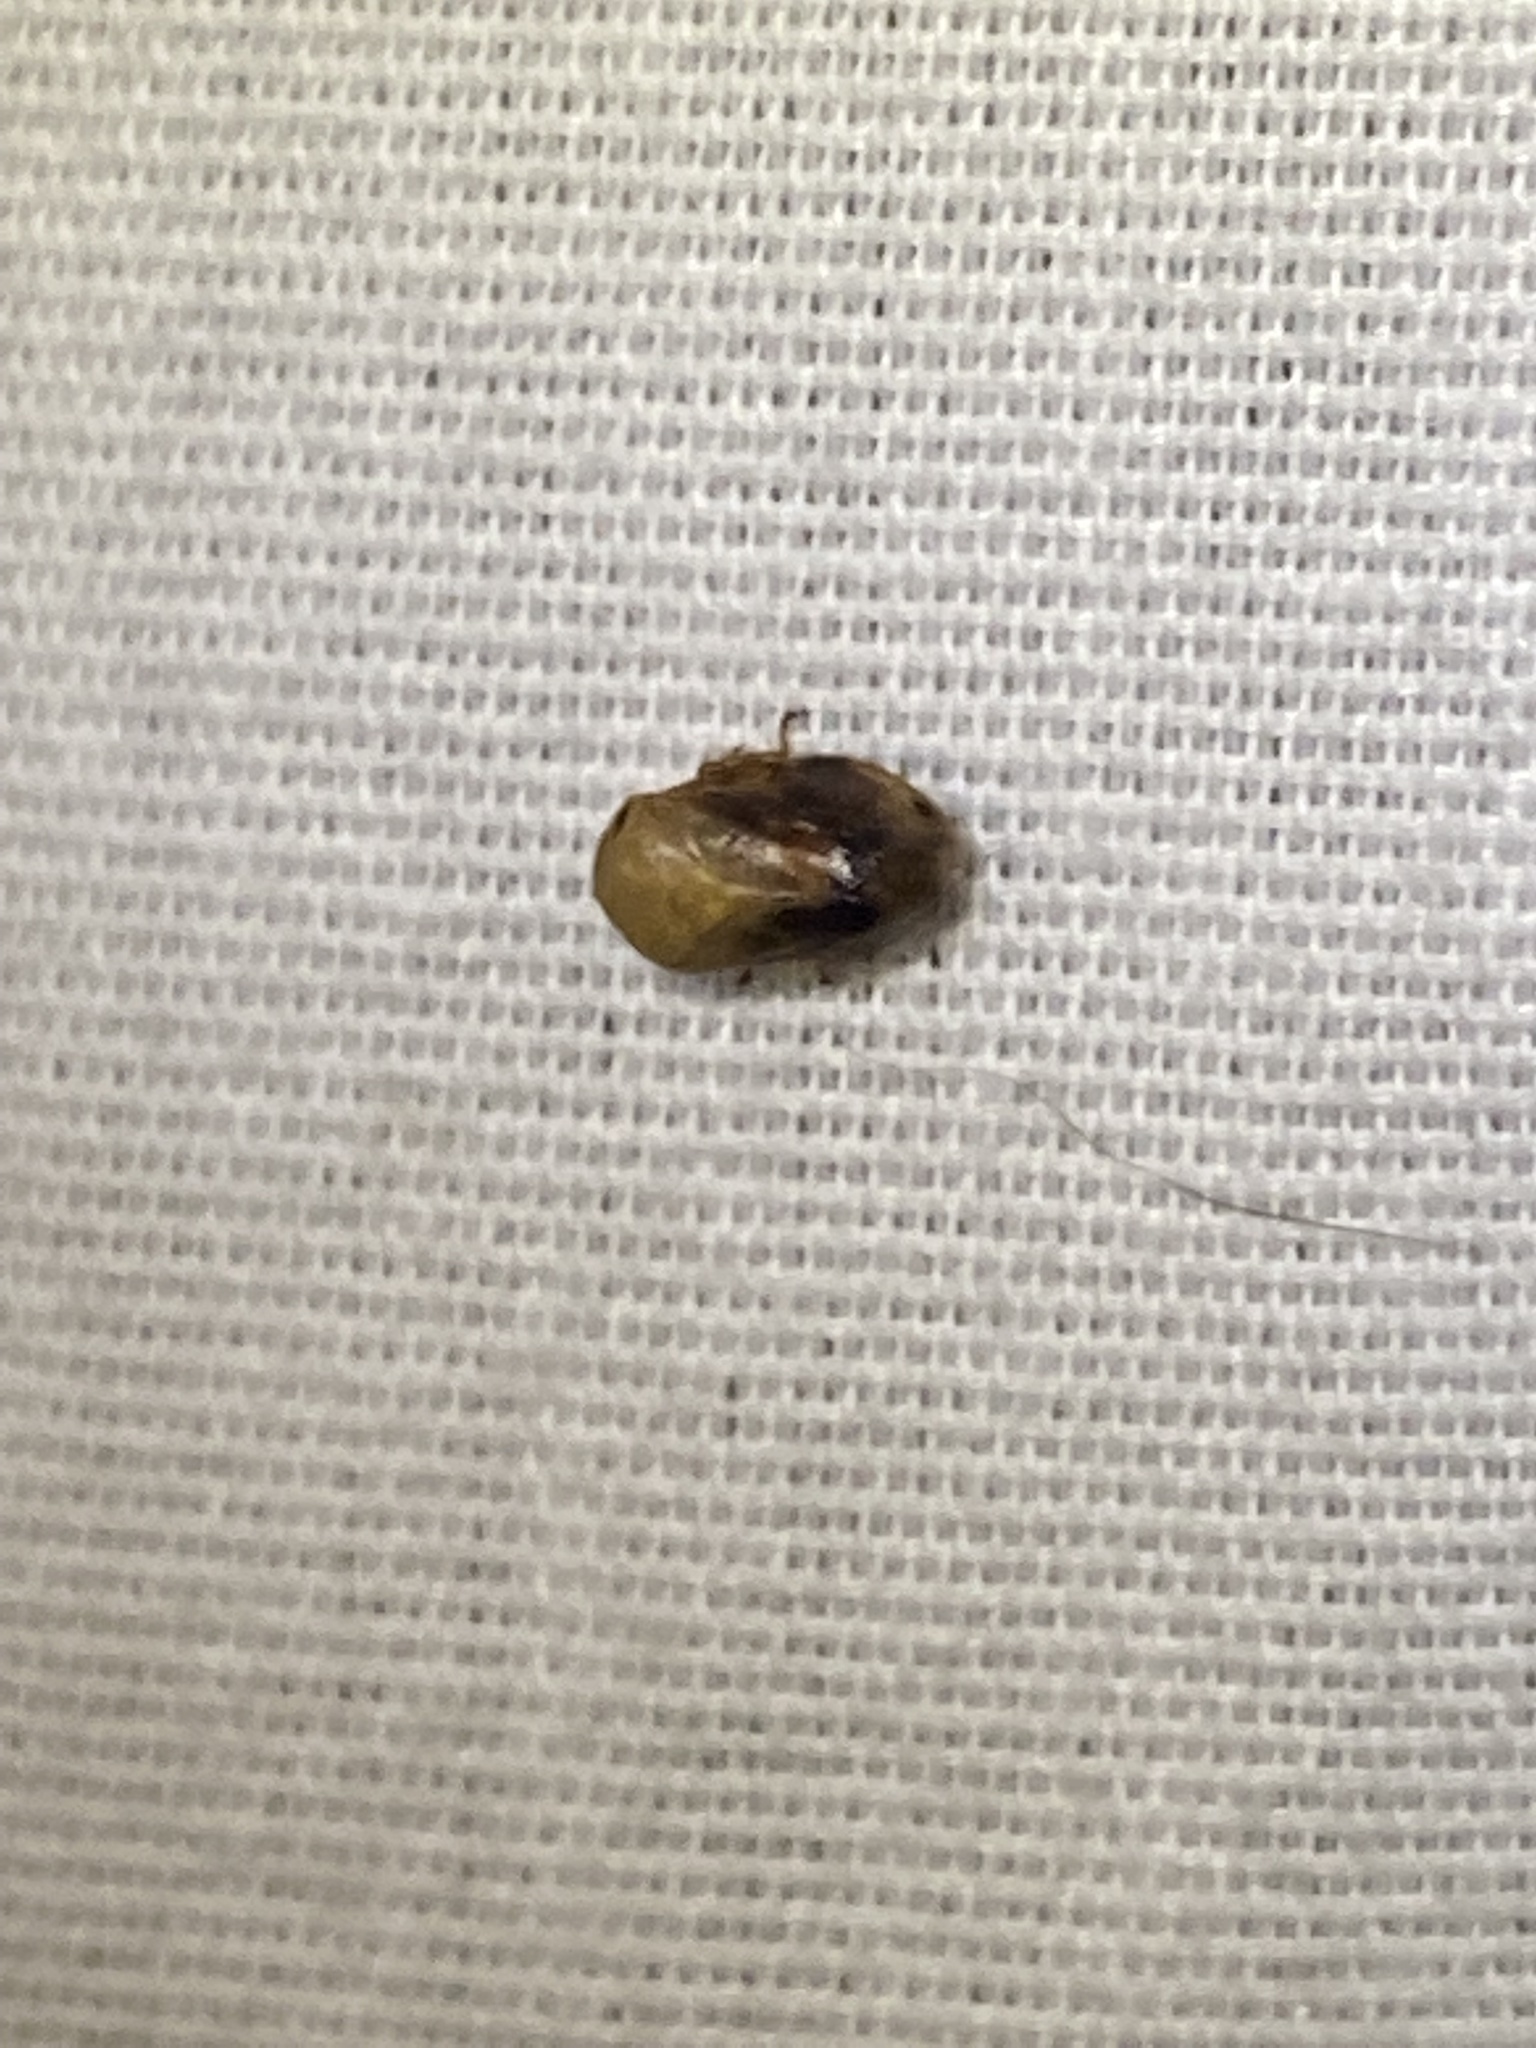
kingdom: Animalia
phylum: Arthropoda
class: Insecta
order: Hemiptera
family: Clastopteridae
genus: Clastoptera
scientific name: Clastoptera achatina
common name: Pecan spittlebug
